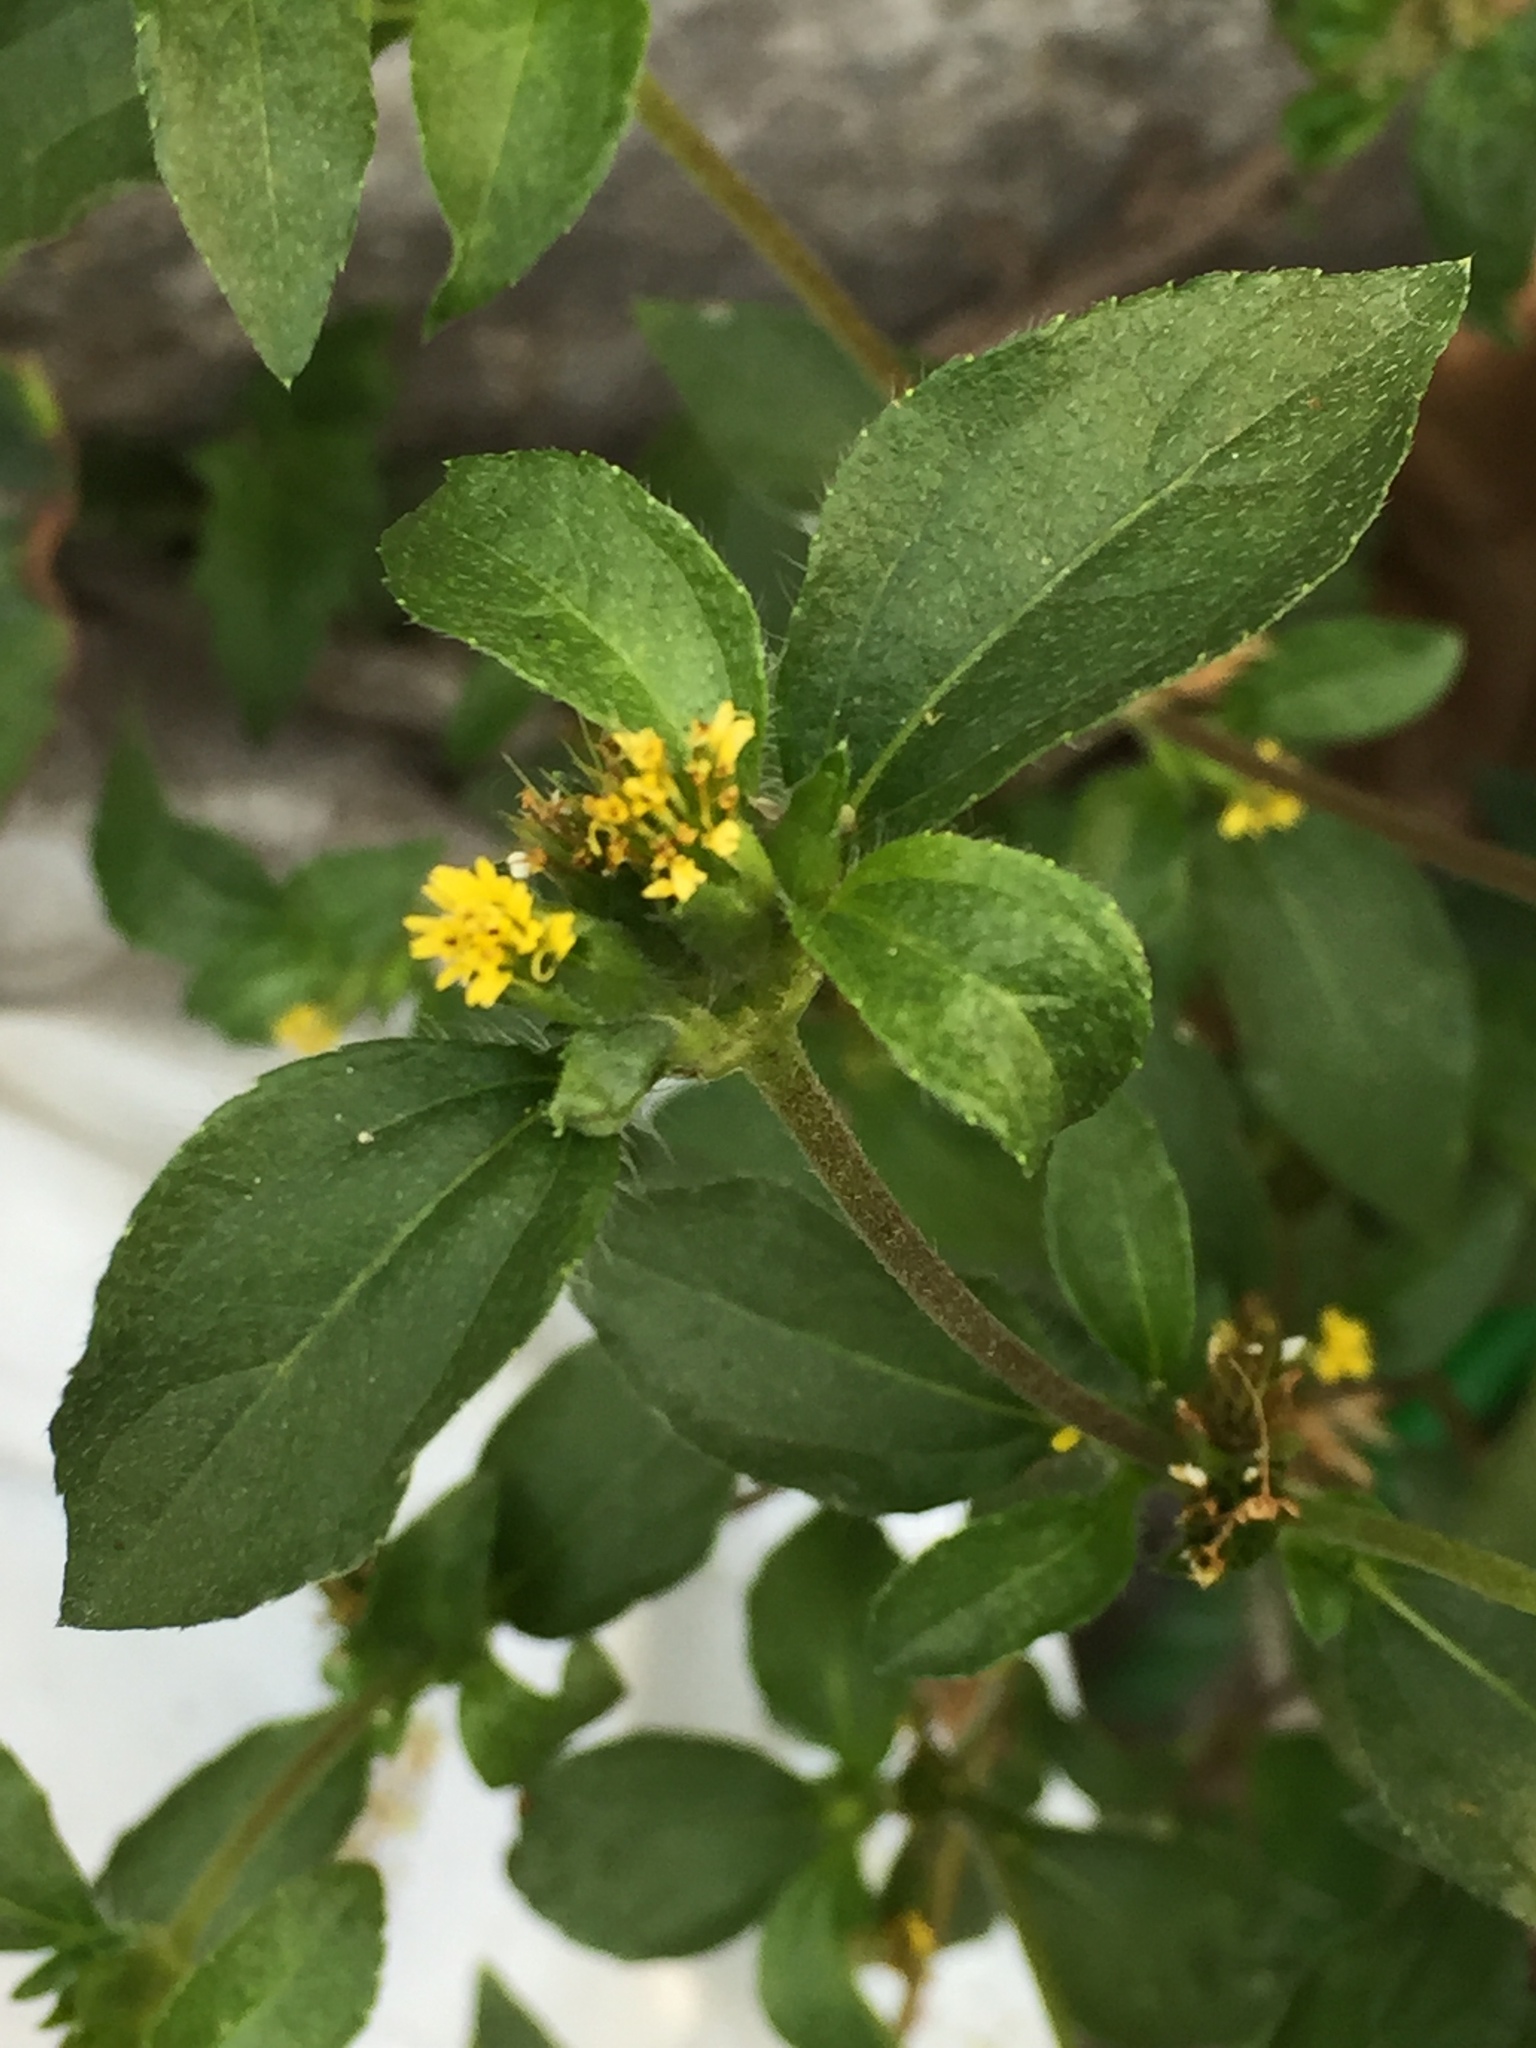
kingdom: Plantae
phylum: Tracheophyta
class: Magnoliopsida
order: Asterales
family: Asteraceae
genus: Synedrella
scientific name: Synedrella nodiflora
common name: Nodeweed
